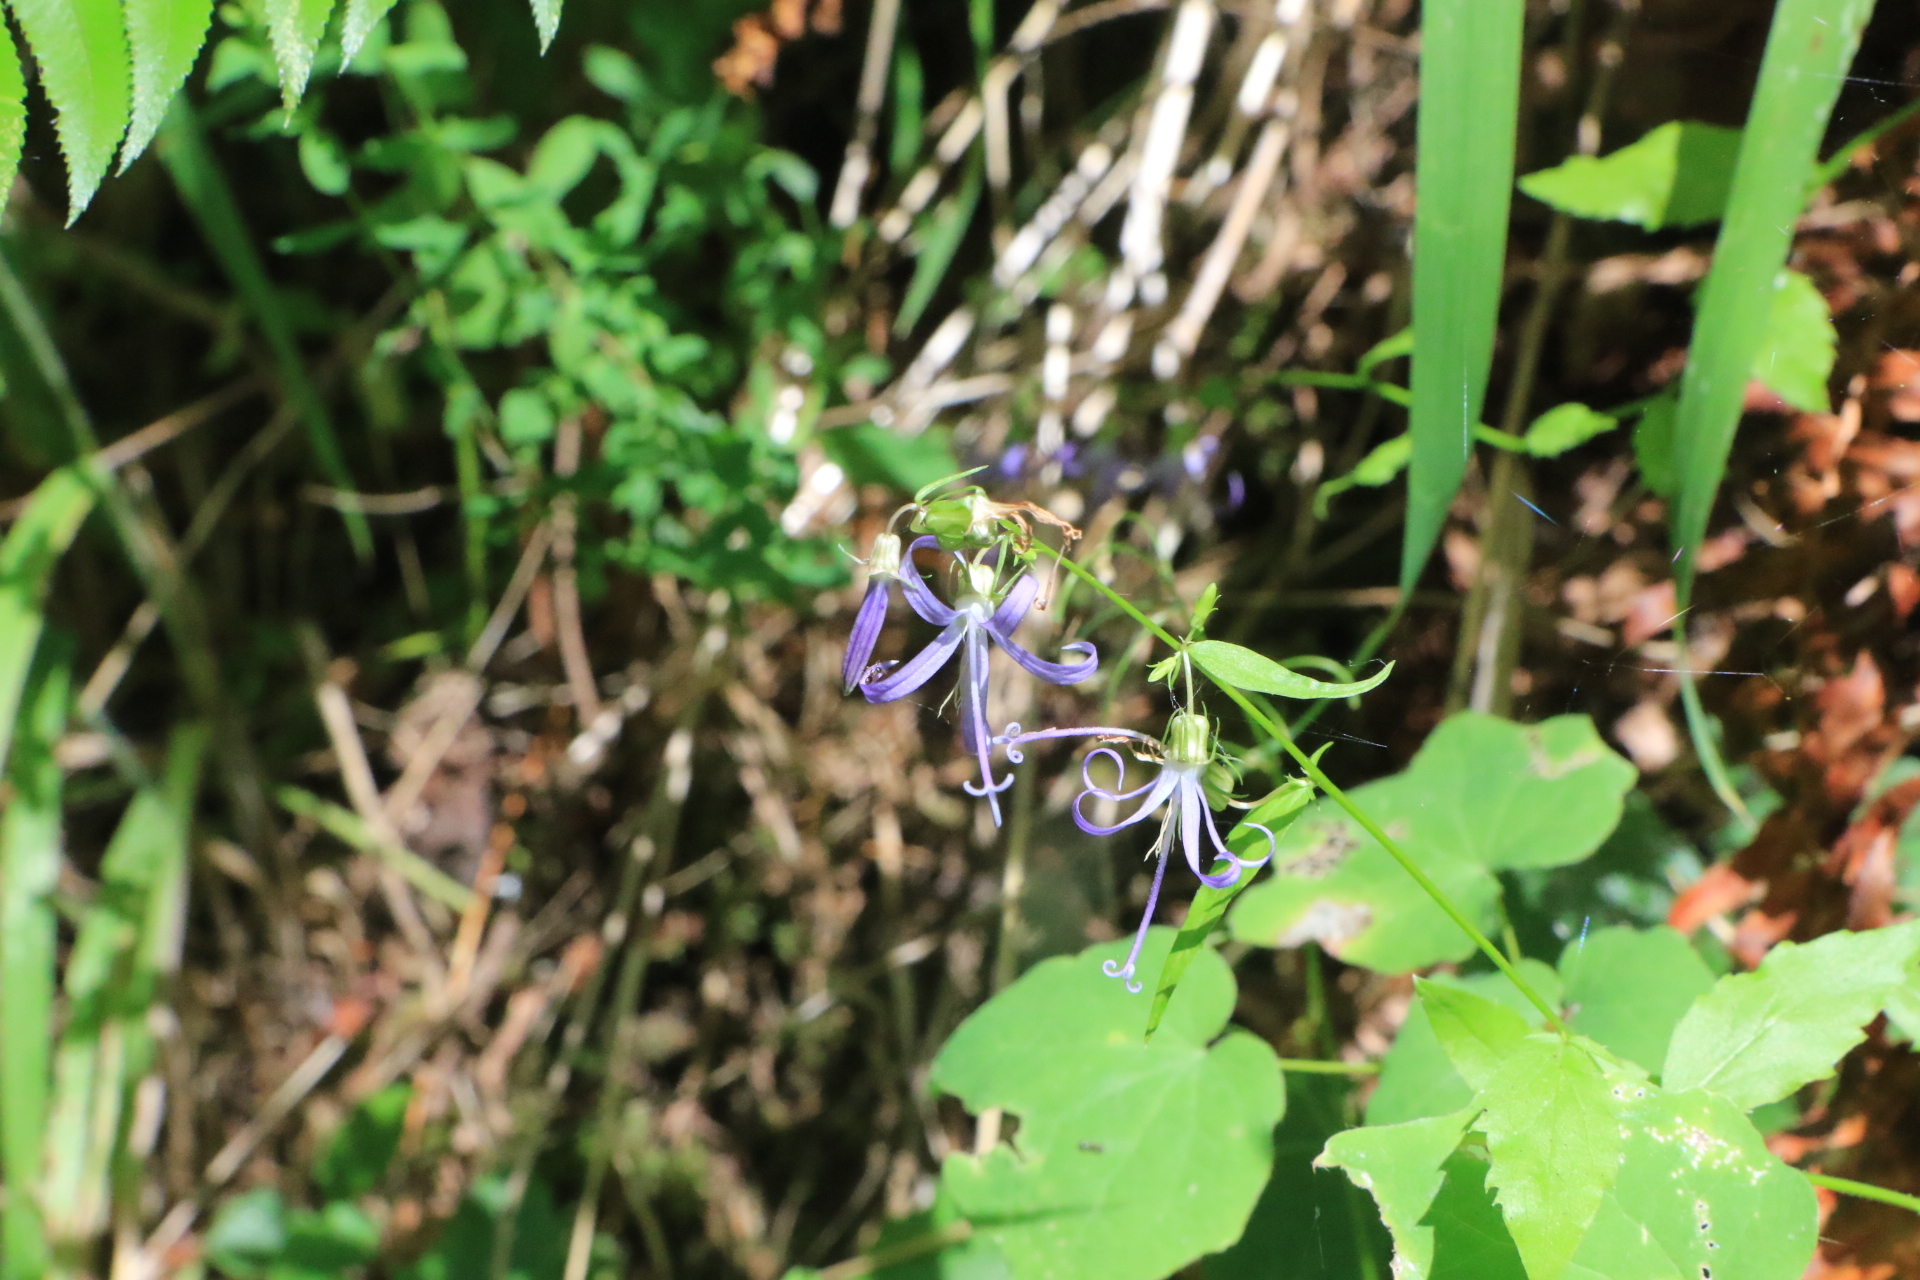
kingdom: Plantae
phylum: Tracheophyta
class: Magnoliopsida
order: Asterales
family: Campanulaceae
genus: Smithiastrum
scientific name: Smithiastrum prenanthoides
